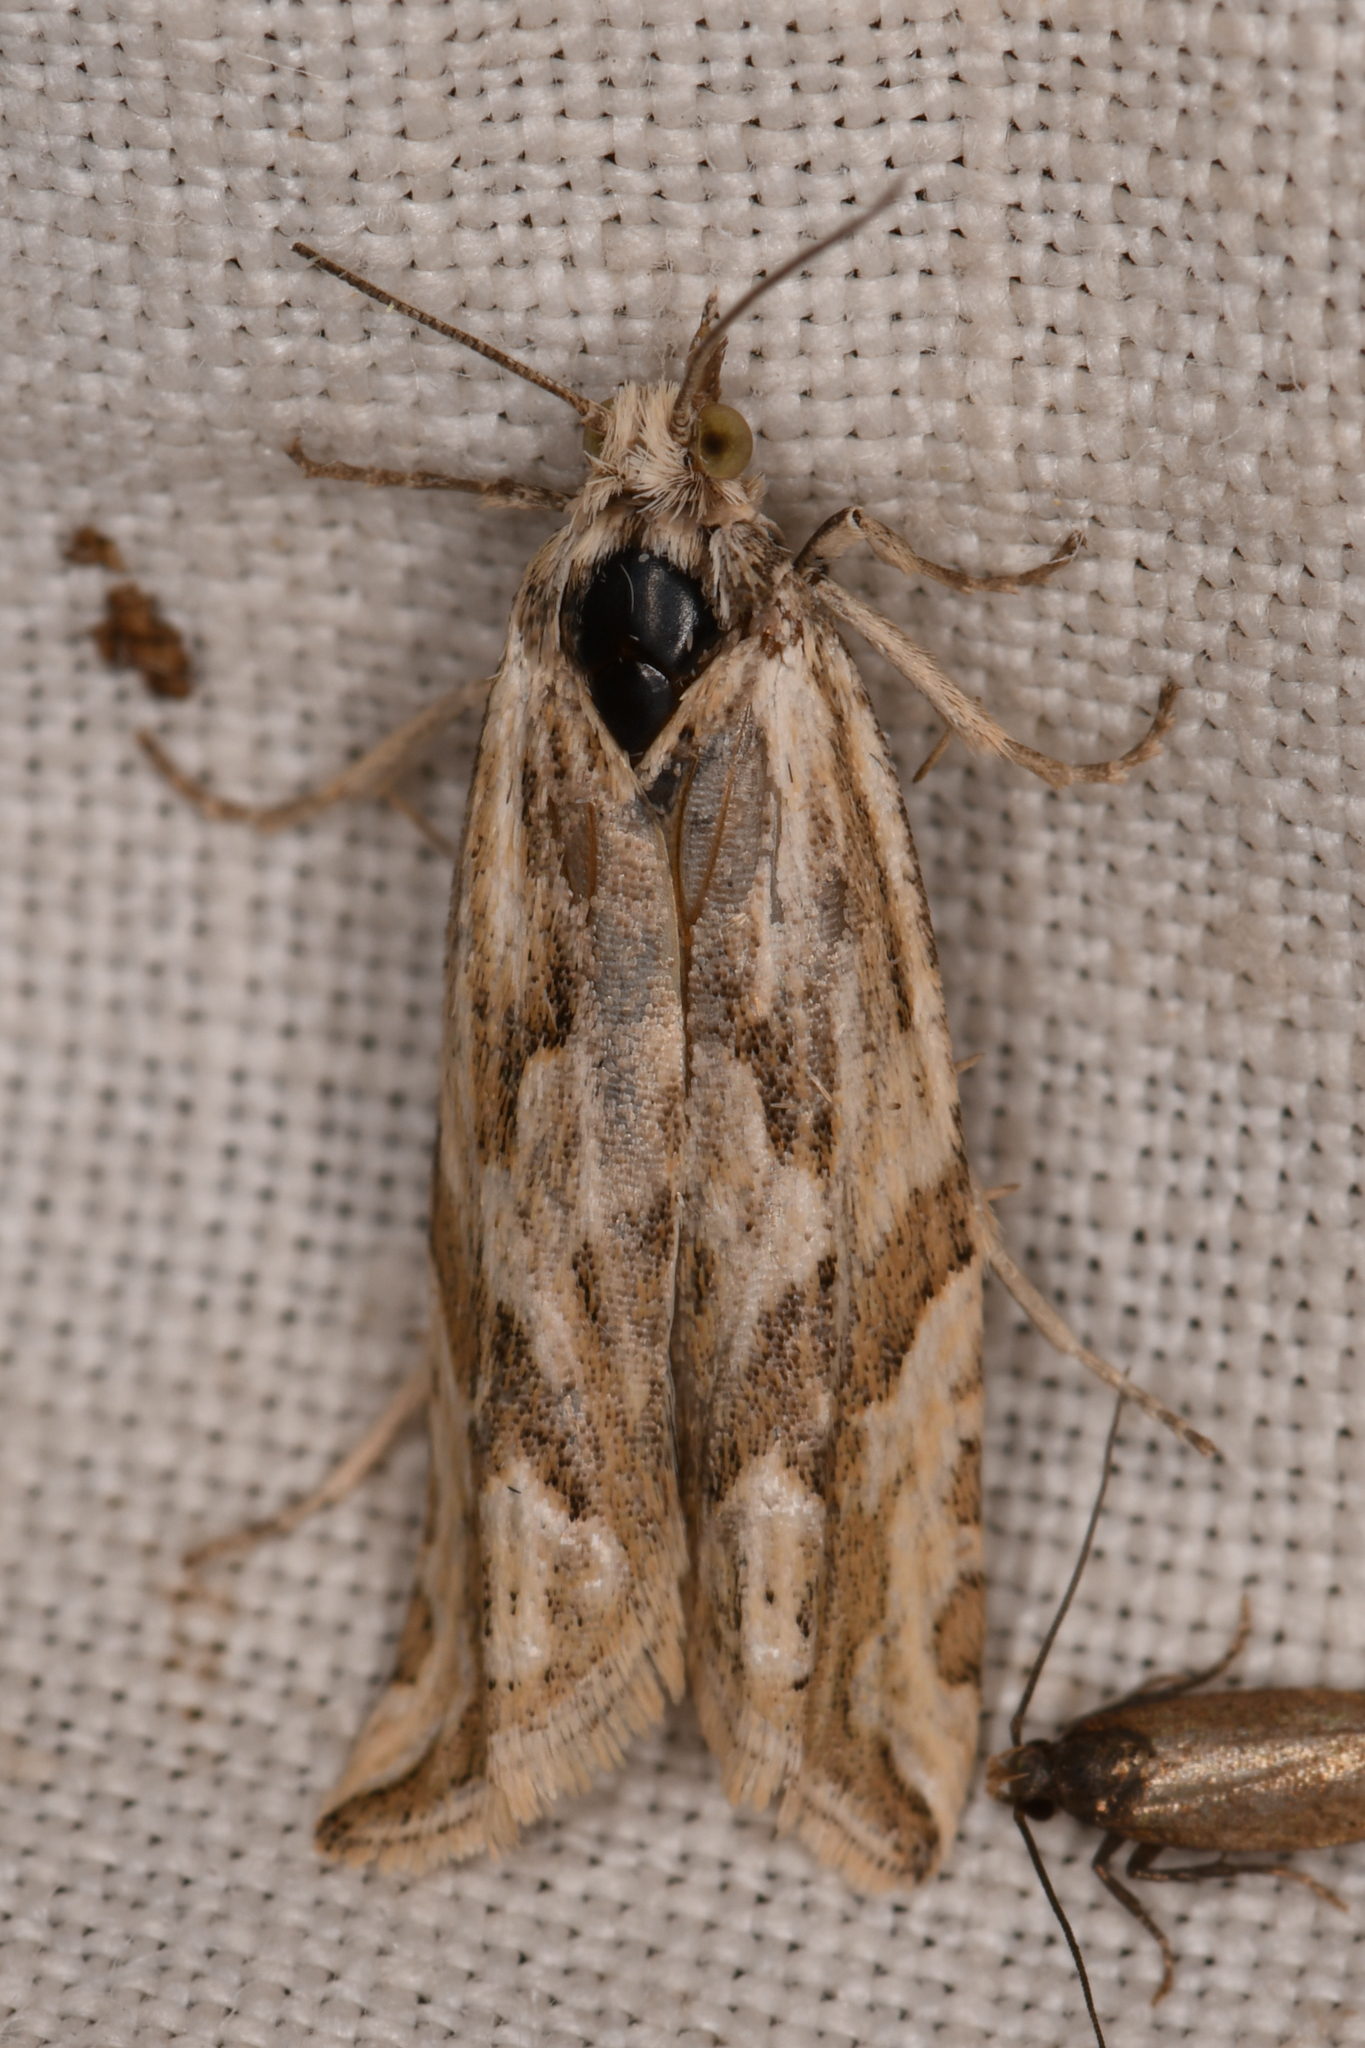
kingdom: Animalia
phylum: Arthropoda
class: Insecta
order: Lepidoptera
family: Tortricidae
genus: Eucosma
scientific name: Eucosma tarandana
